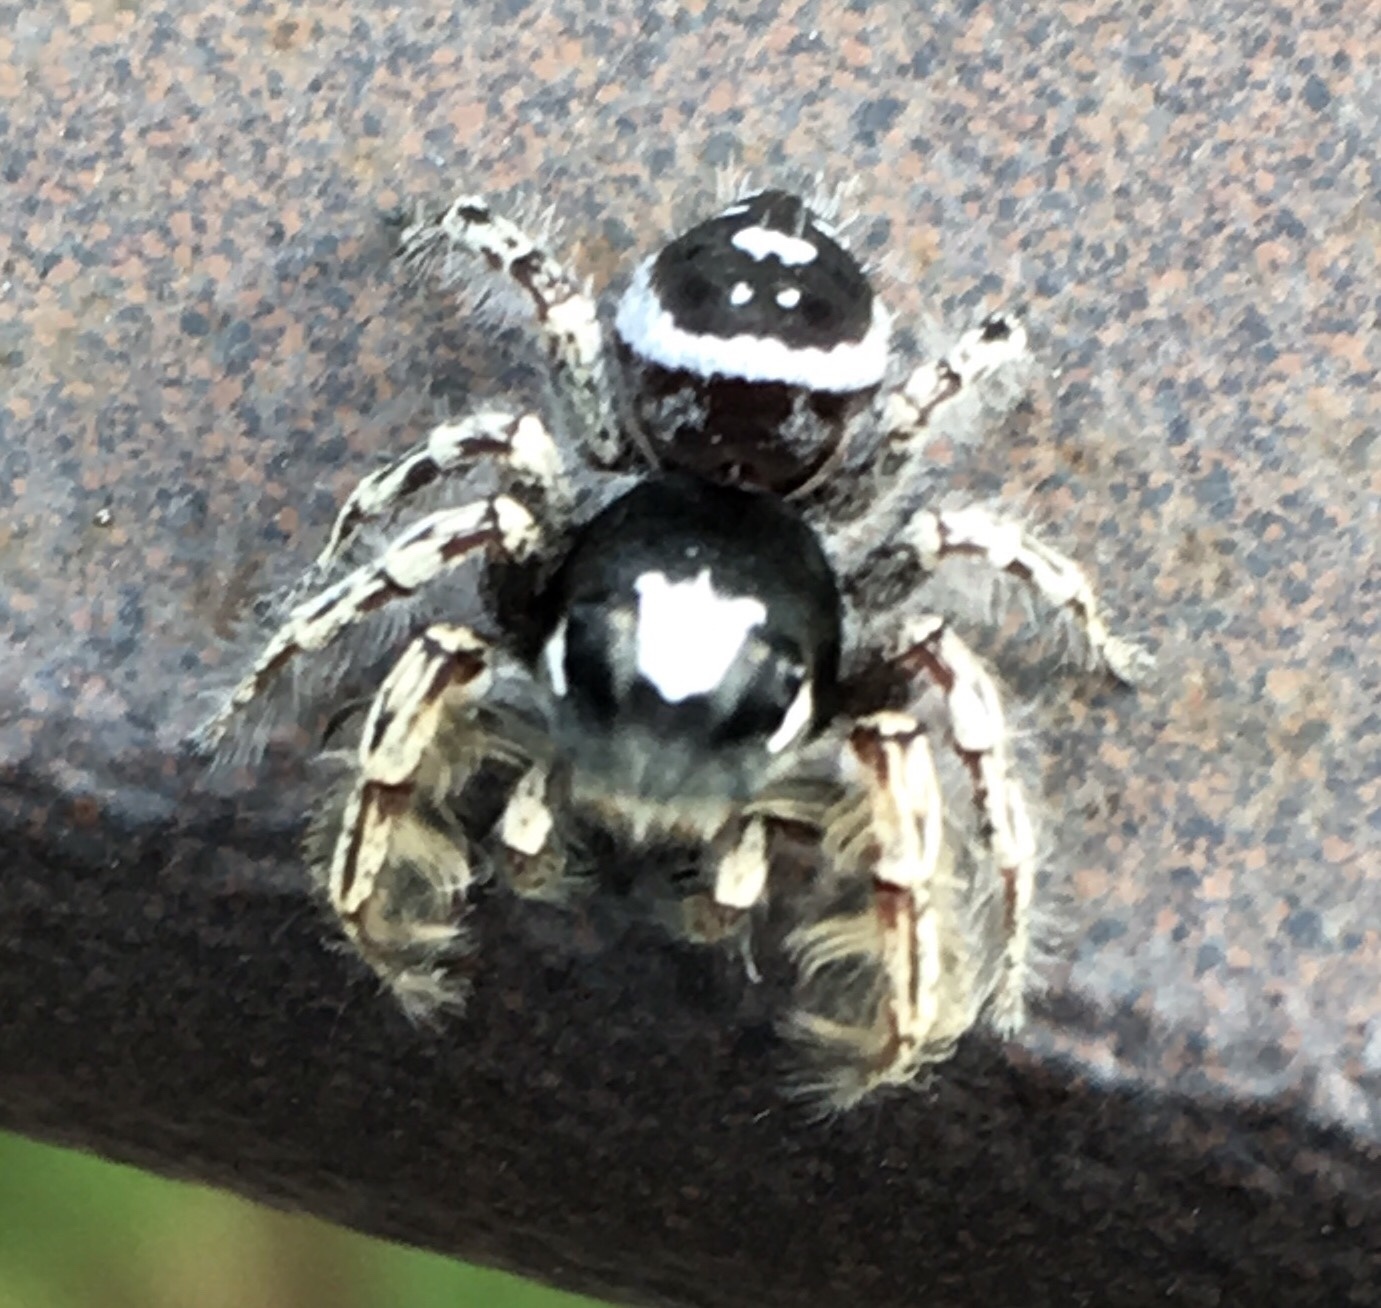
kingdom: Animalia
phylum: Arthropoda
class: Arachnida
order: Araneae
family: Salticidae
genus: Phidippus
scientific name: Phidippus putnami
